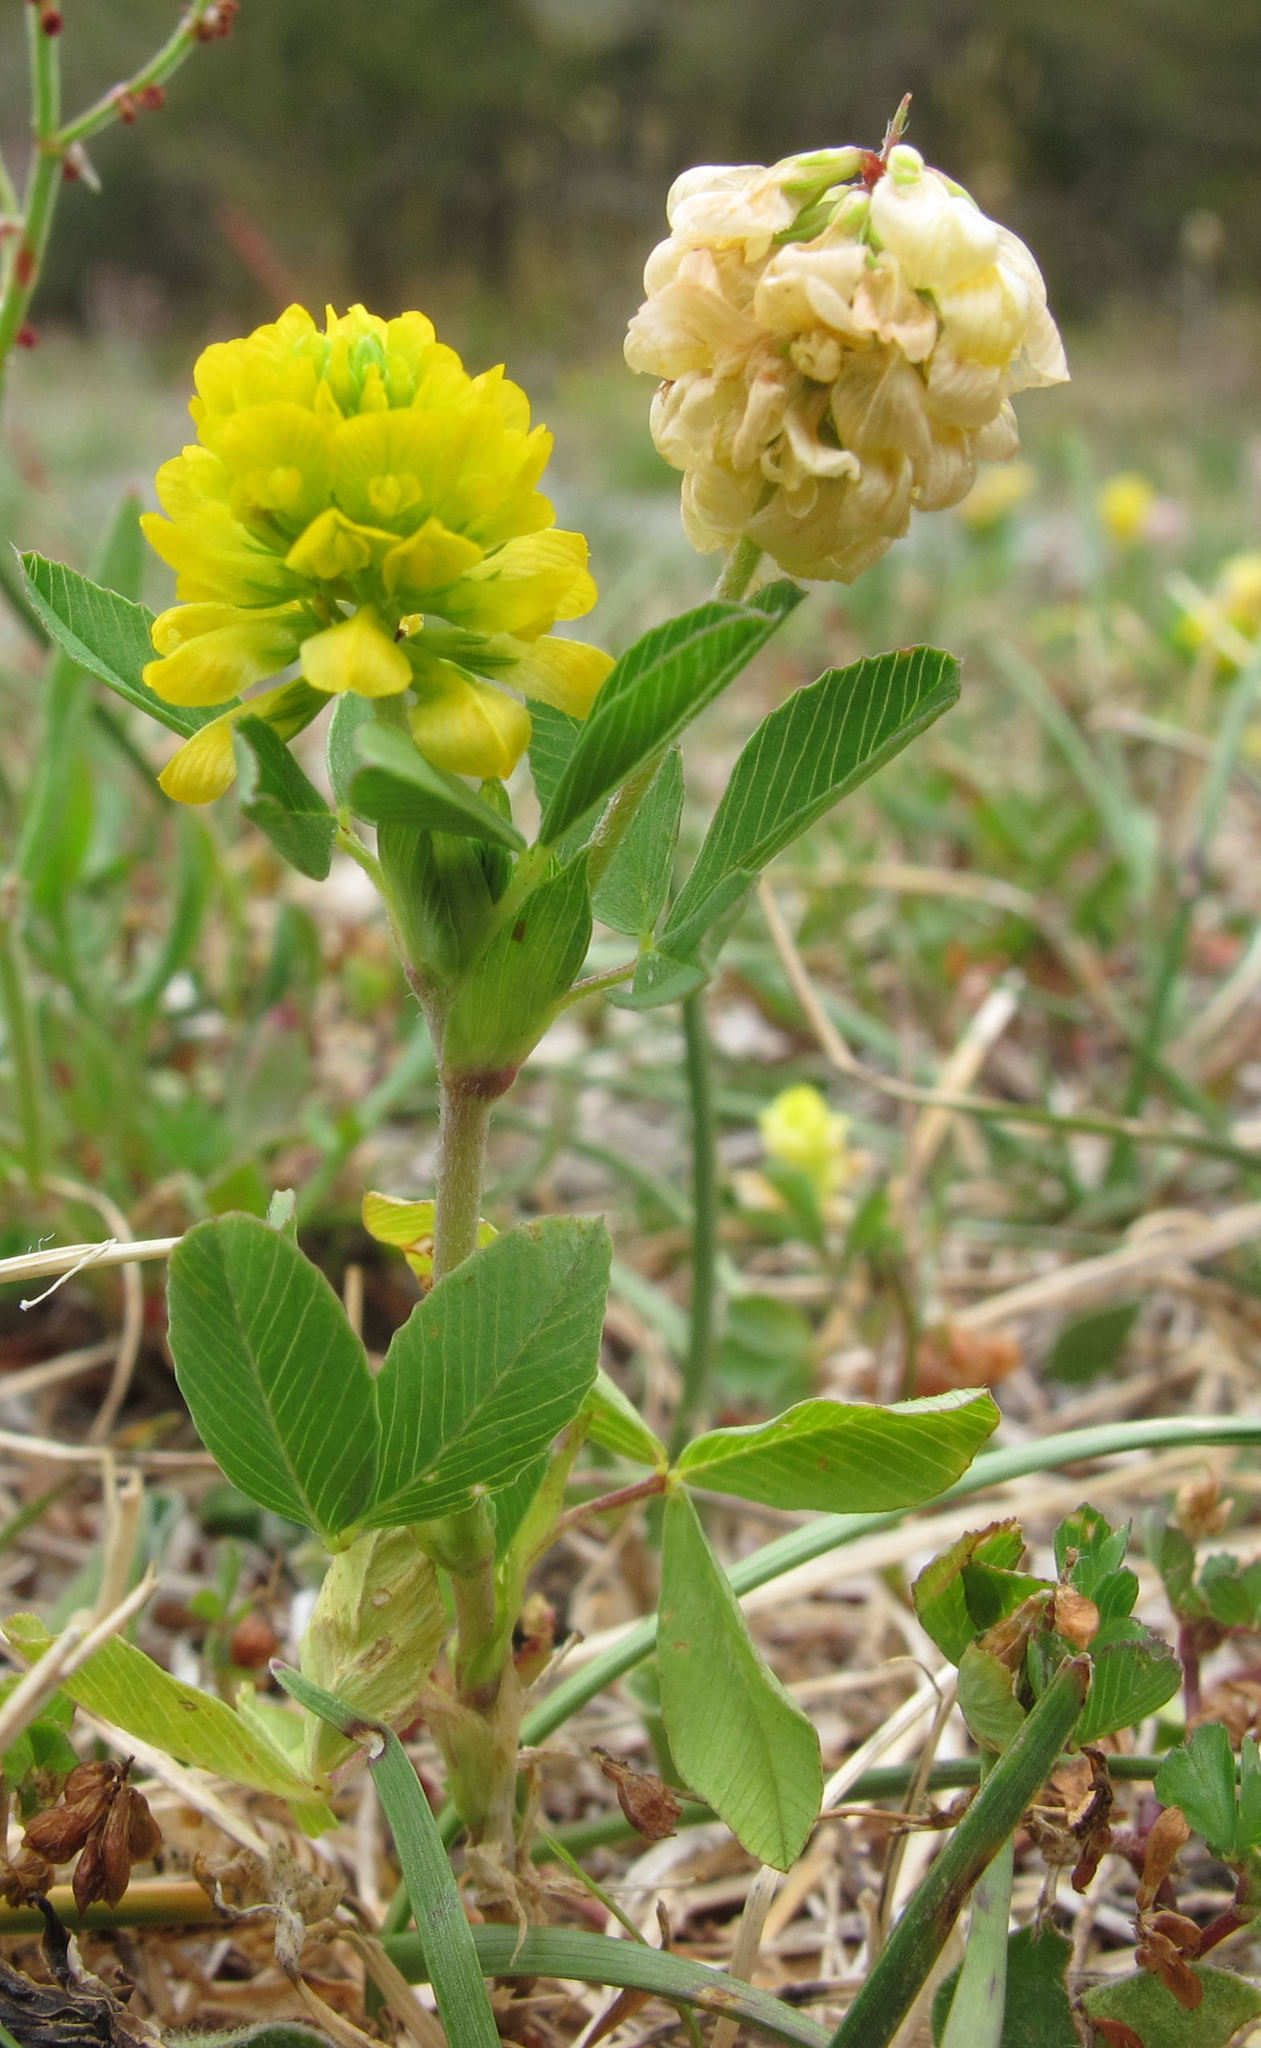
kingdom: Plantae
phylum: Tracheophyta
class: Magnoliopsida
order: Fabales
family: Fabaceae
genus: Trifolium
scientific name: Trifolium aureum
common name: Golden clover
